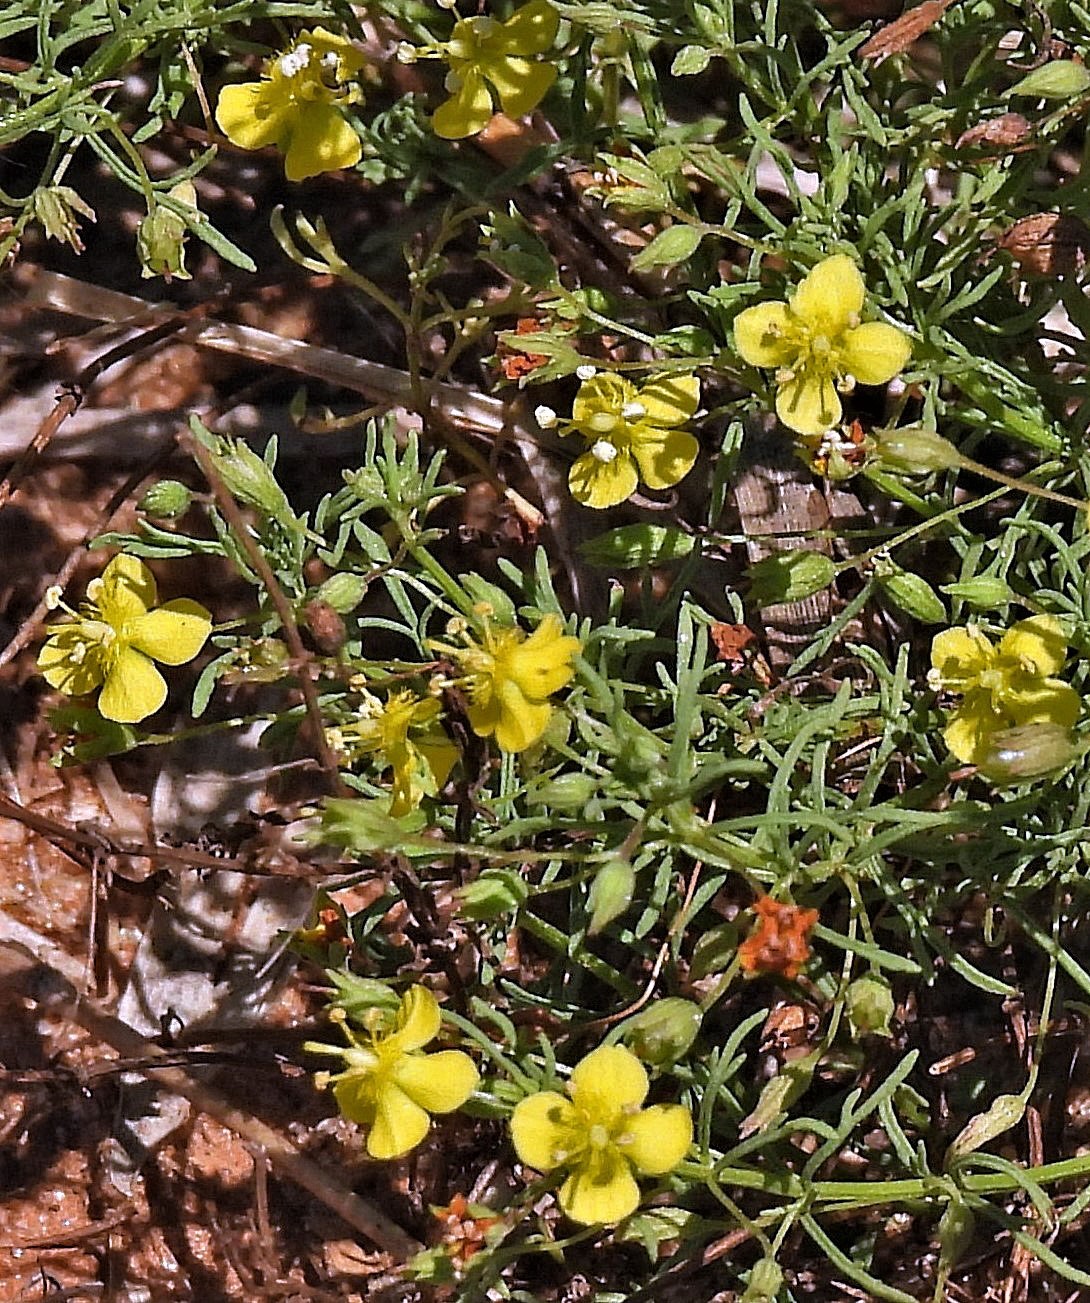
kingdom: Plantae
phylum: Tracheophyta
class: Magnoliopsida
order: Lamiales
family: Plantaginaceae
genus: Scoparia
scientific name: Scoparia montevidensis
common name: Broomwort
